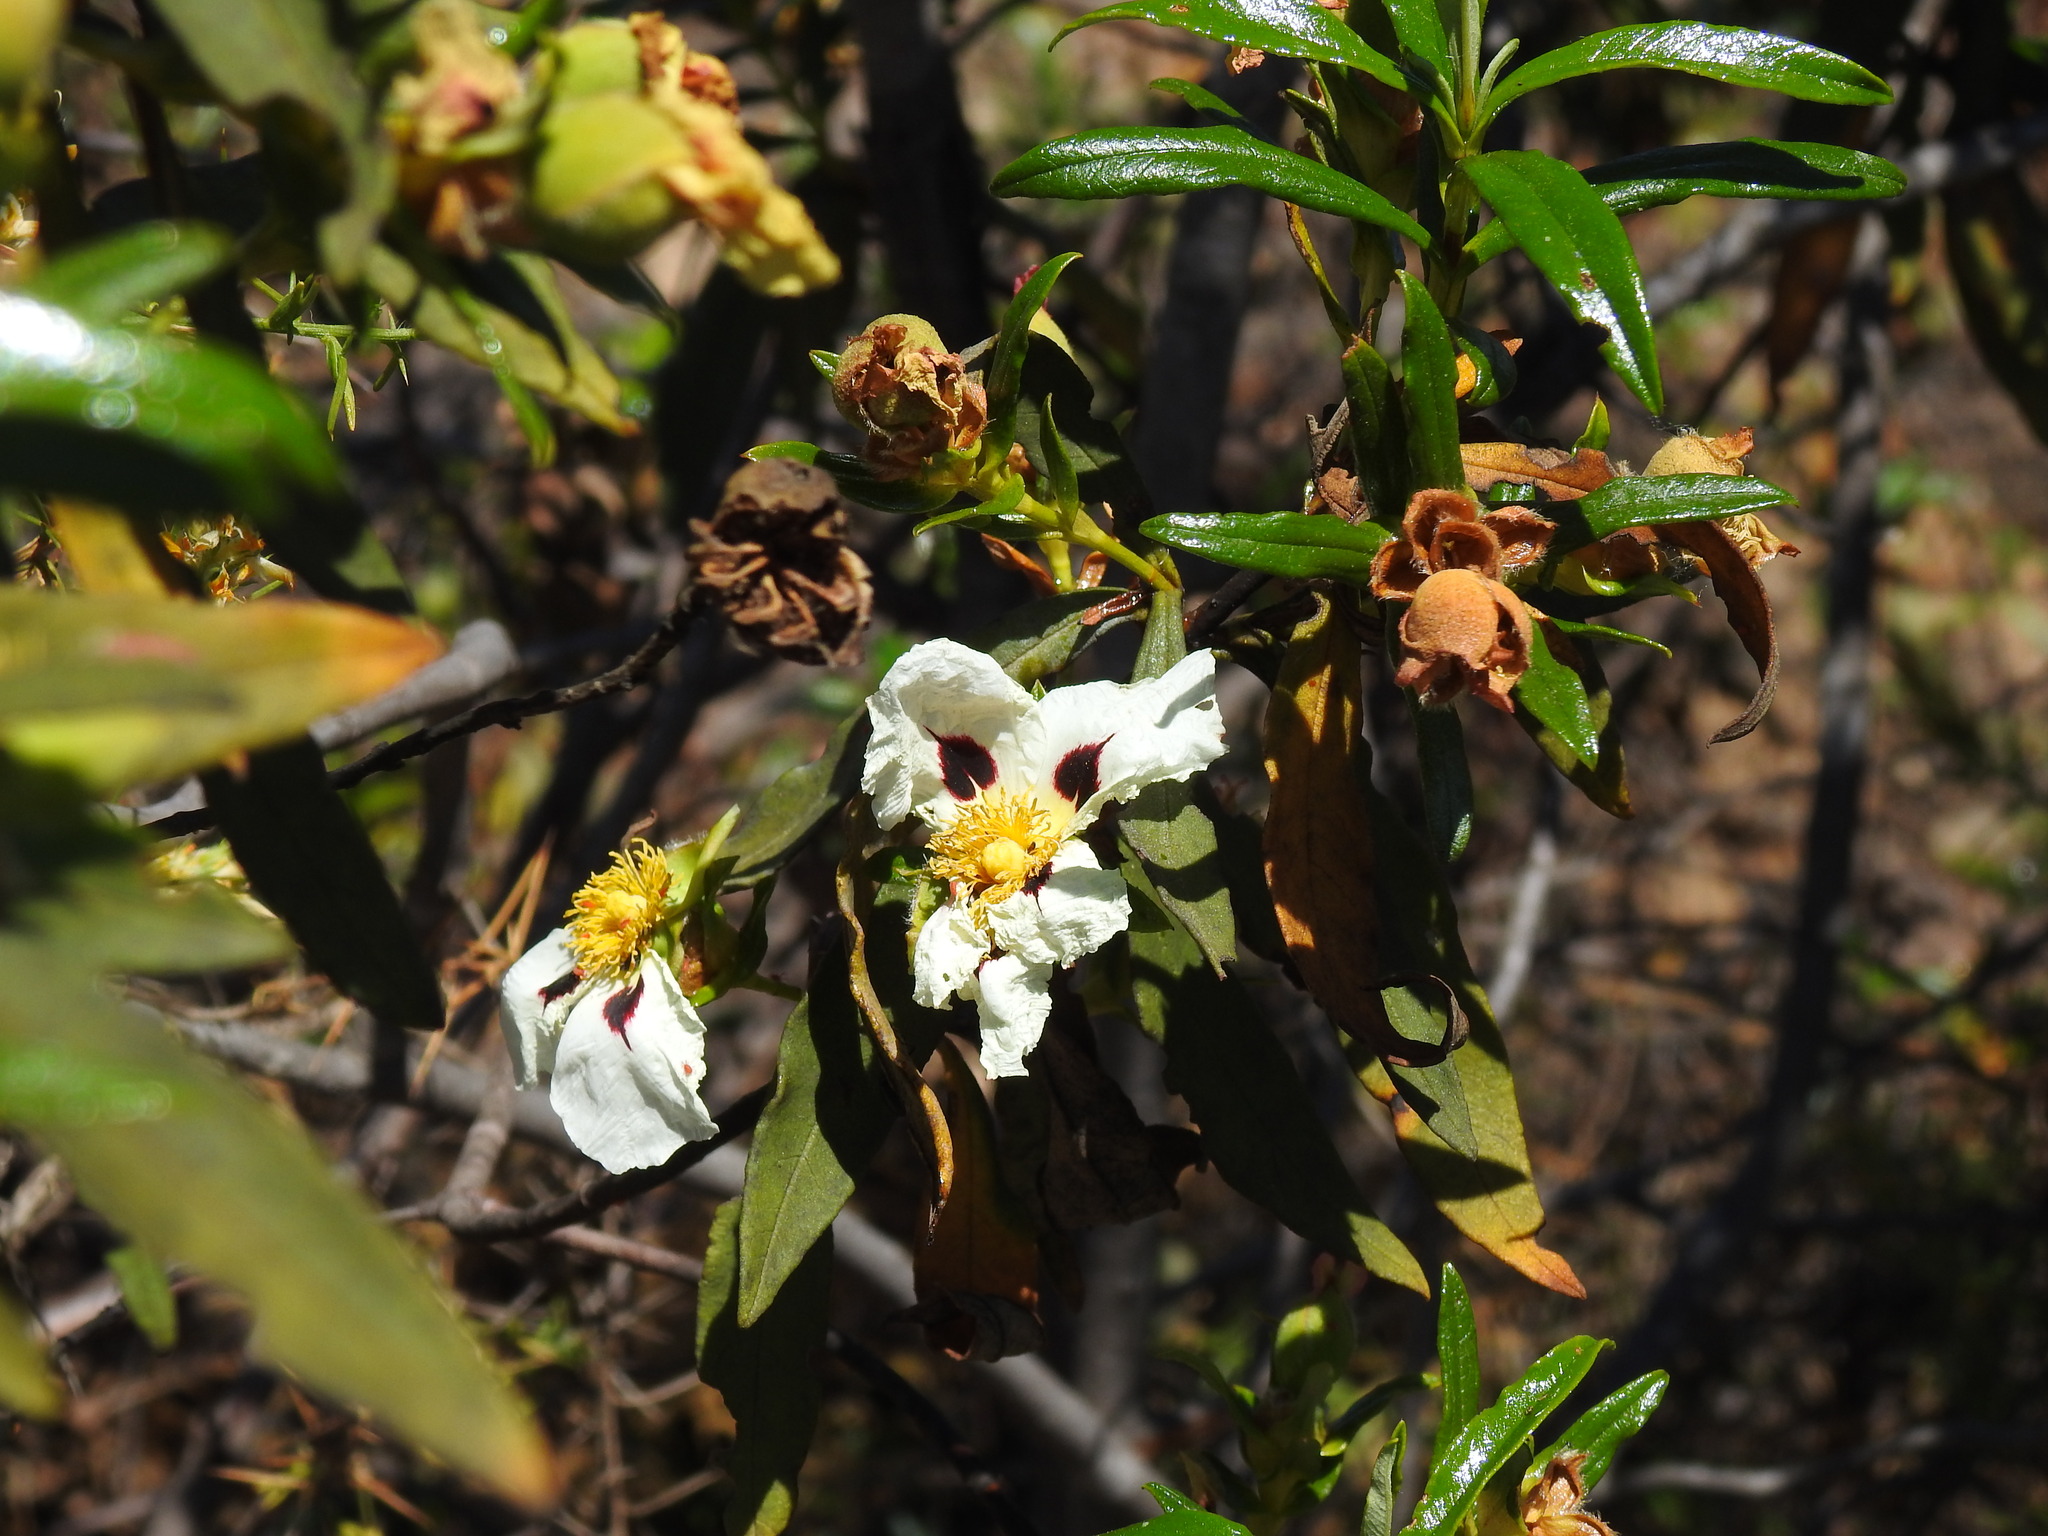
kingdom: Plantae
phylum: Tracheophyta
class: Magnoliopsida
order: Malvales
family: Cistaceae
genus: Cistus
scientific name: Cistus ladanifer
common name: Common gum cistus
